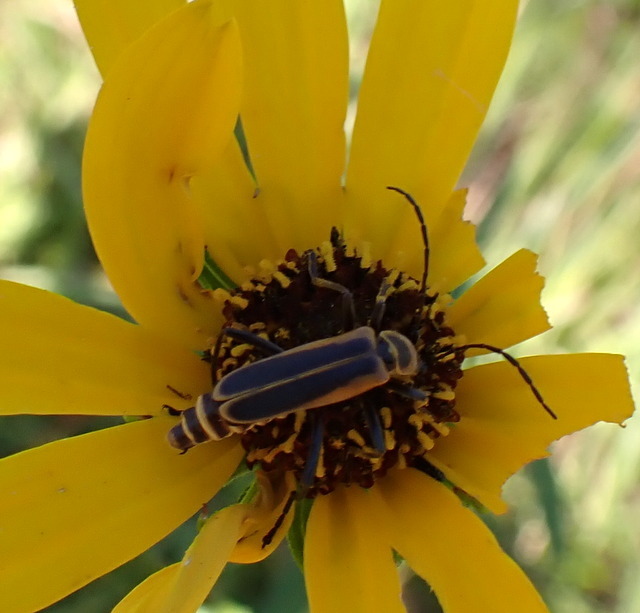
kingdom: Animalia
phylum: Arthropoda
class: Insecta
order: Coleoptera
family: Cantharidae
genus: Chauliognathus
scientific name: Chauliognathus pensylvanicus
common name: Goldenrod soldier beetle
